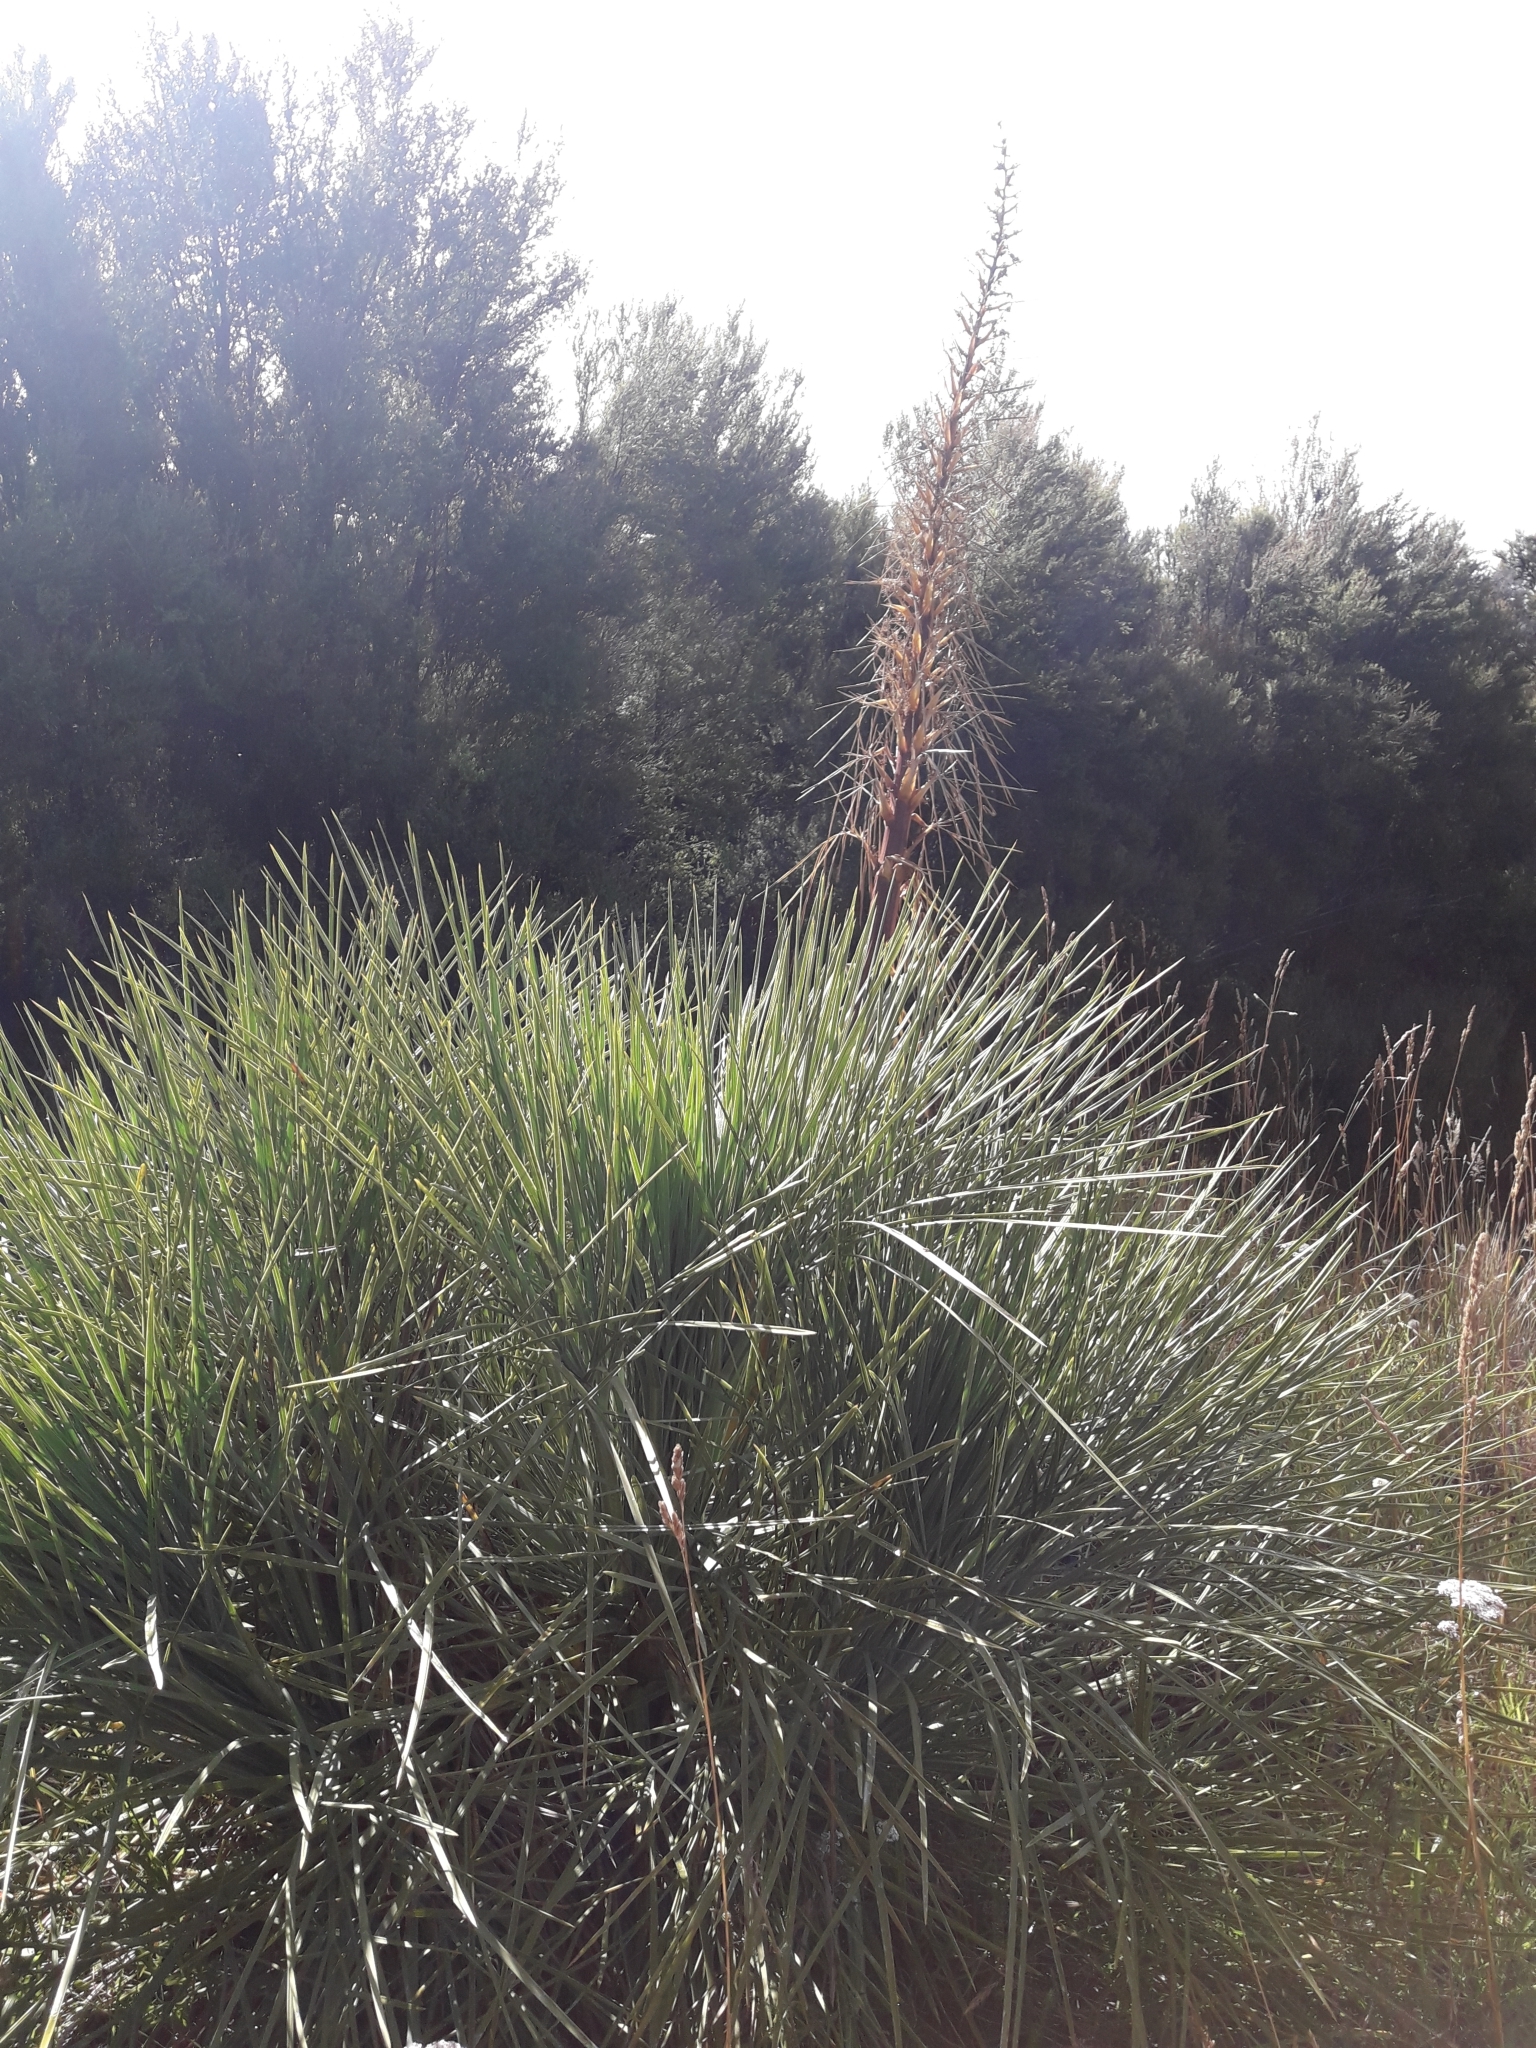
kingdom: Plantae
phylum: Tracheophyta
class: Magnoliopsida
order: Apiales
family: Apiaceae
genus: Aciphylla
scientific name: Aciphylla glaucescens
